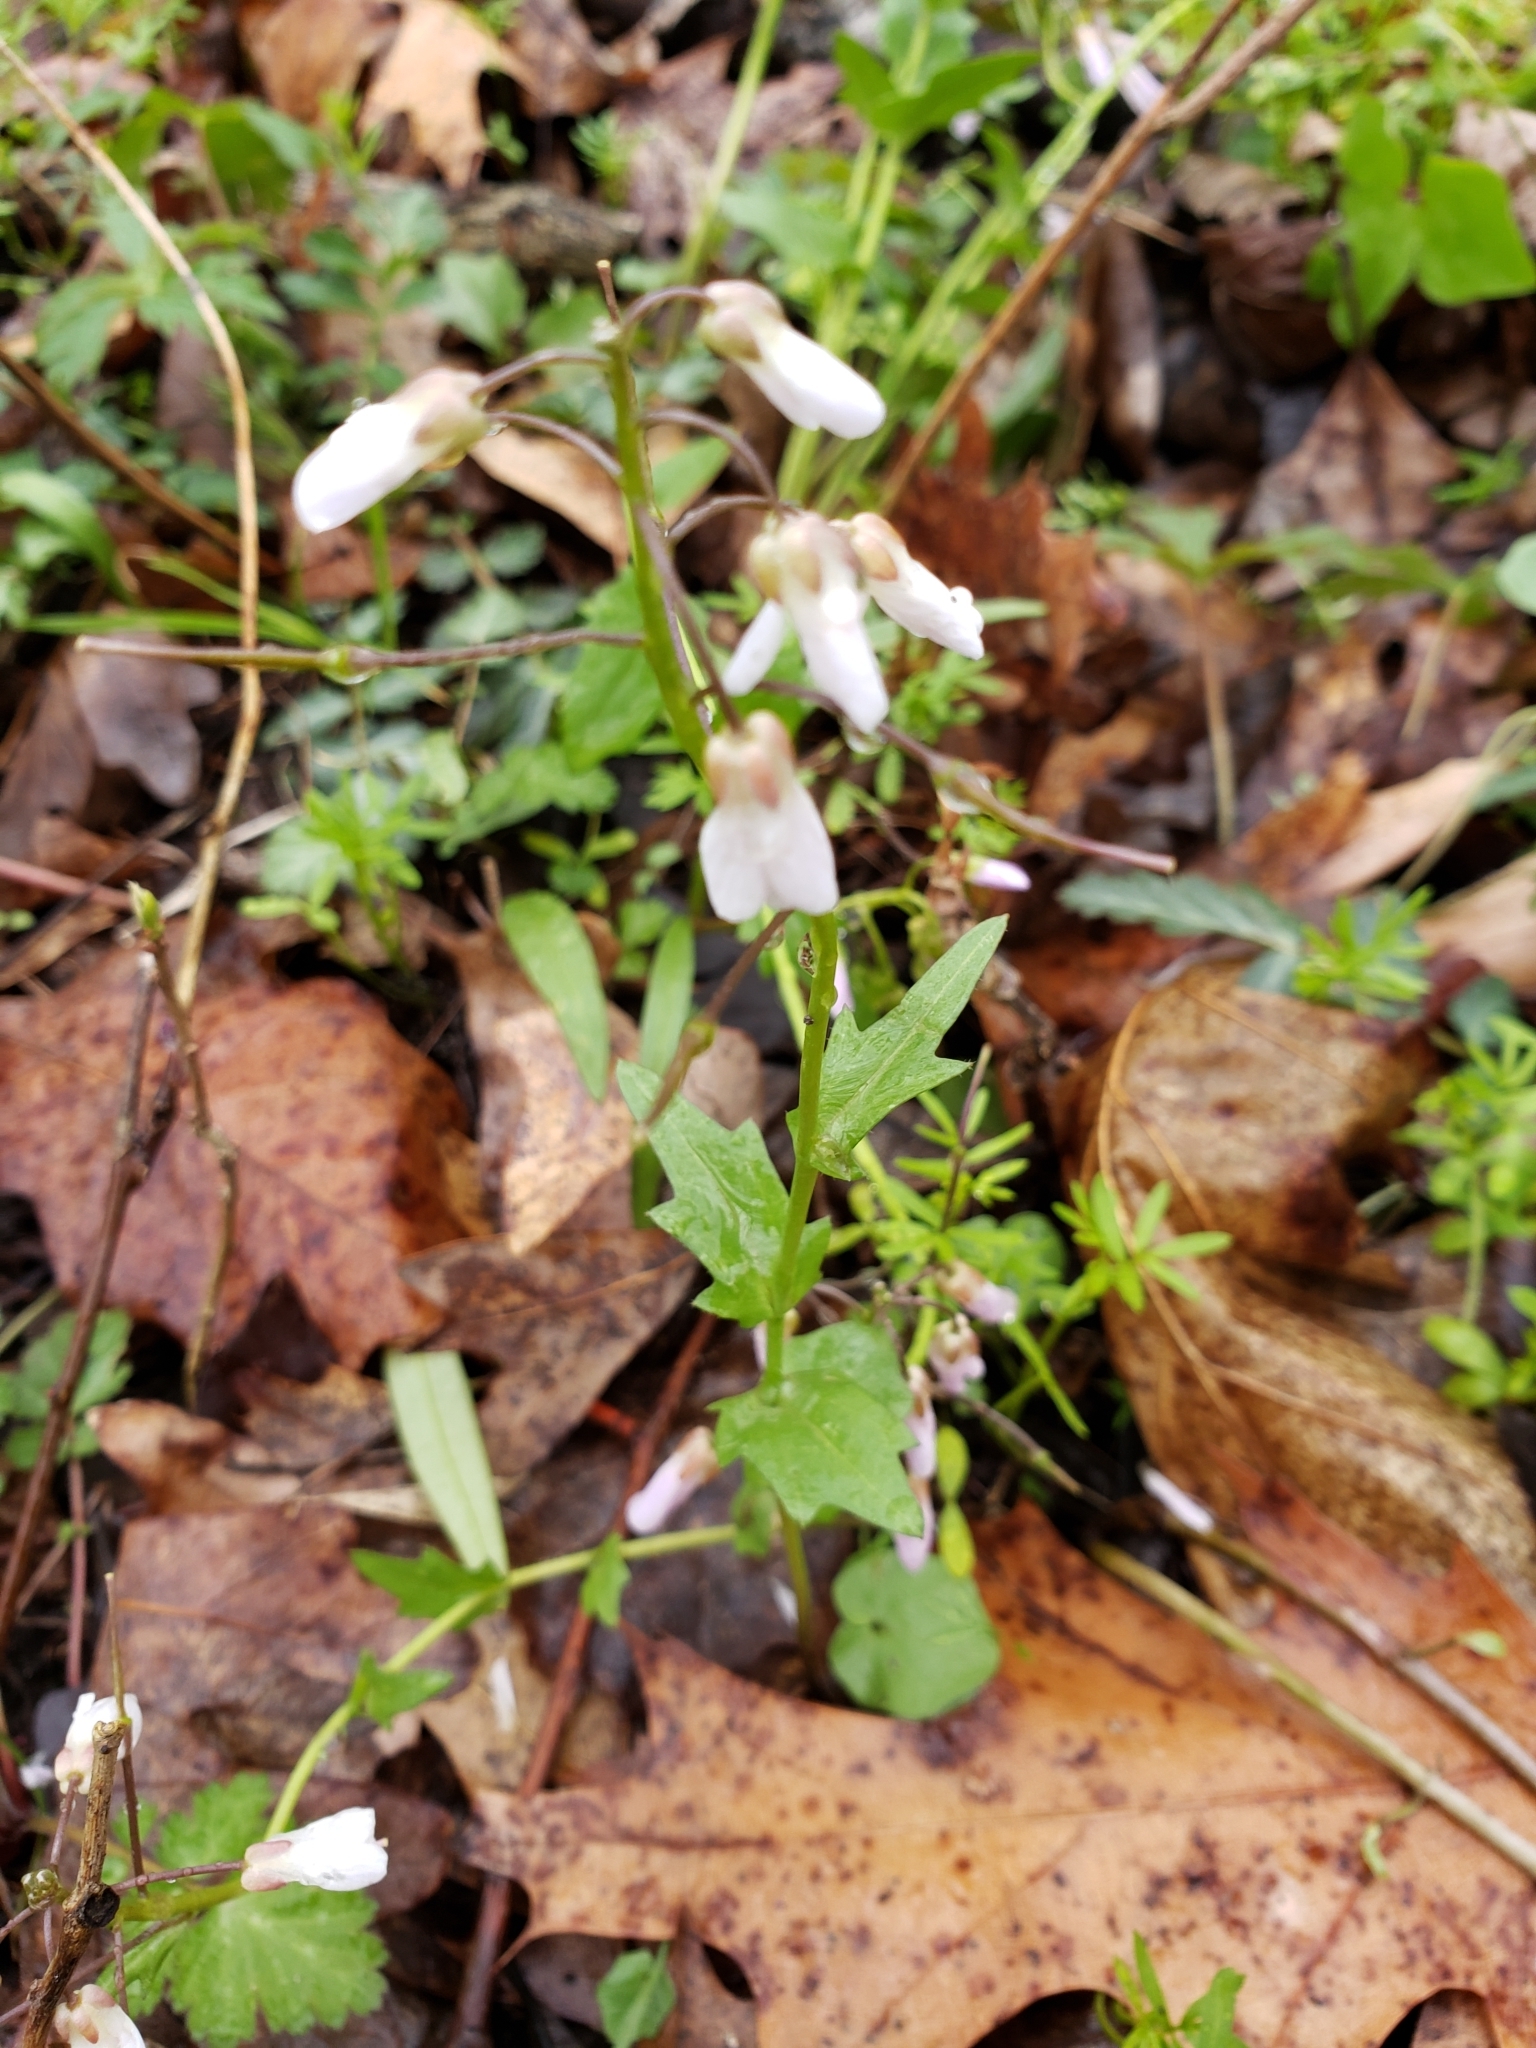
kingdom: Plantae
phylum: Tracheophyta
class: Magnoliopsida
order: Brassicales
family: Brassicaceae
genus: Cardamine
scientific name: Cardamine douglassii
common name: Purple cress
